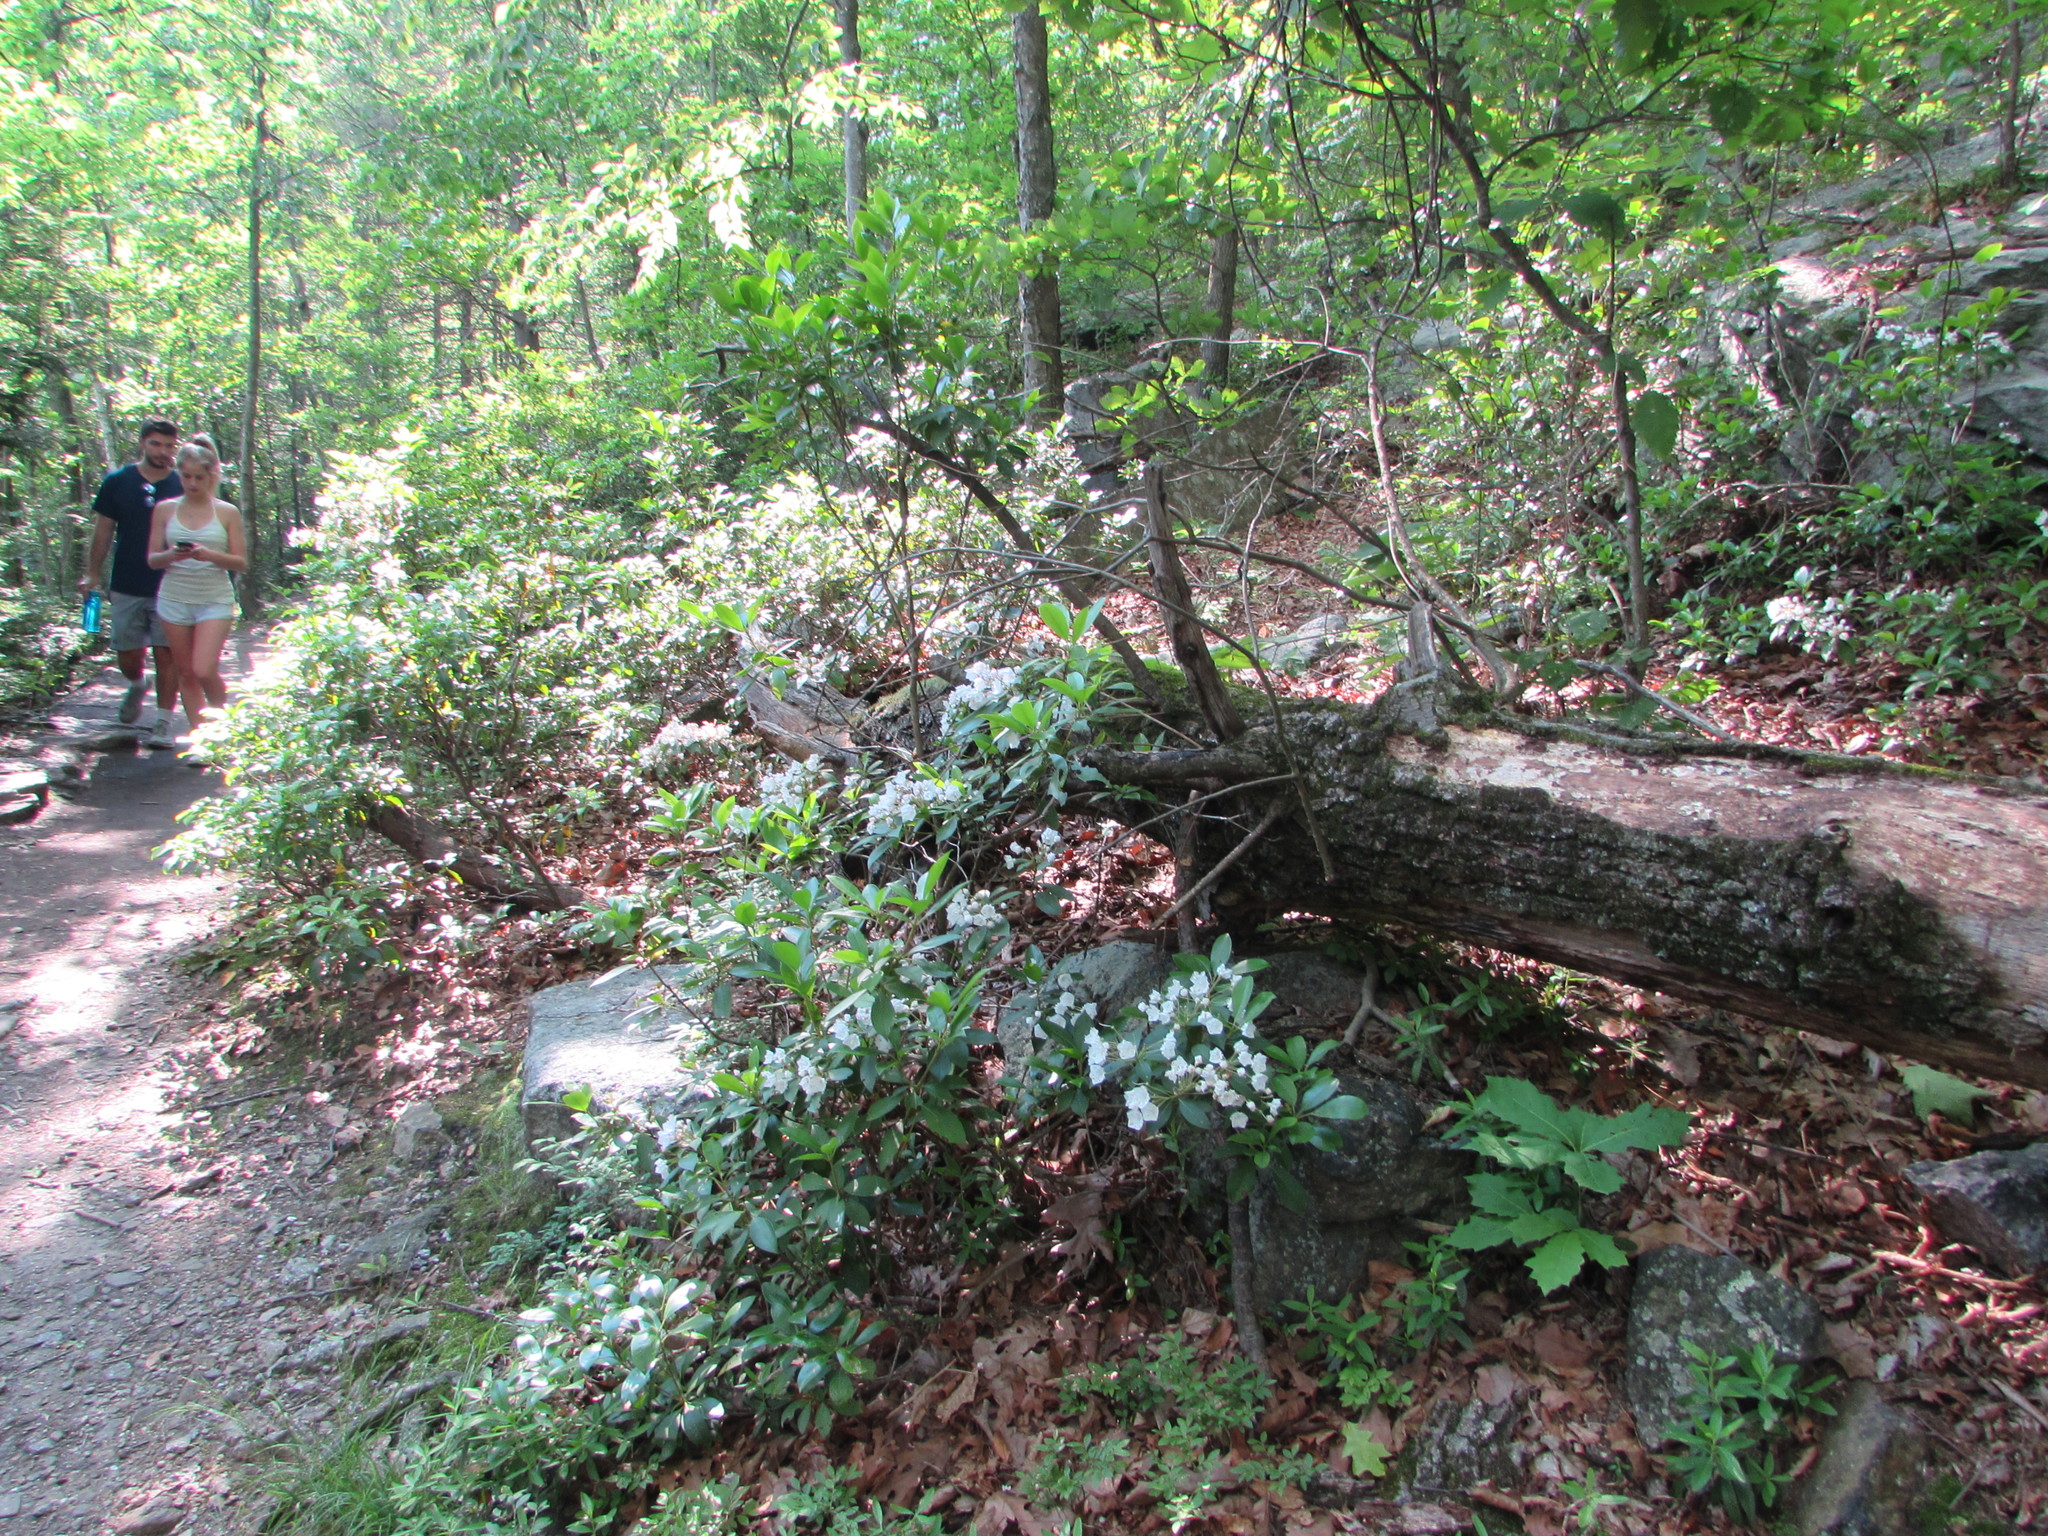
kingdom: Plantae
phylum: Tracheophyta
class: Magnoliopsida
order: Ericales
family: Ericaceae
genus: Kalmia
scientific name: Kalmia latifolia
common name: Mountain-laurel
